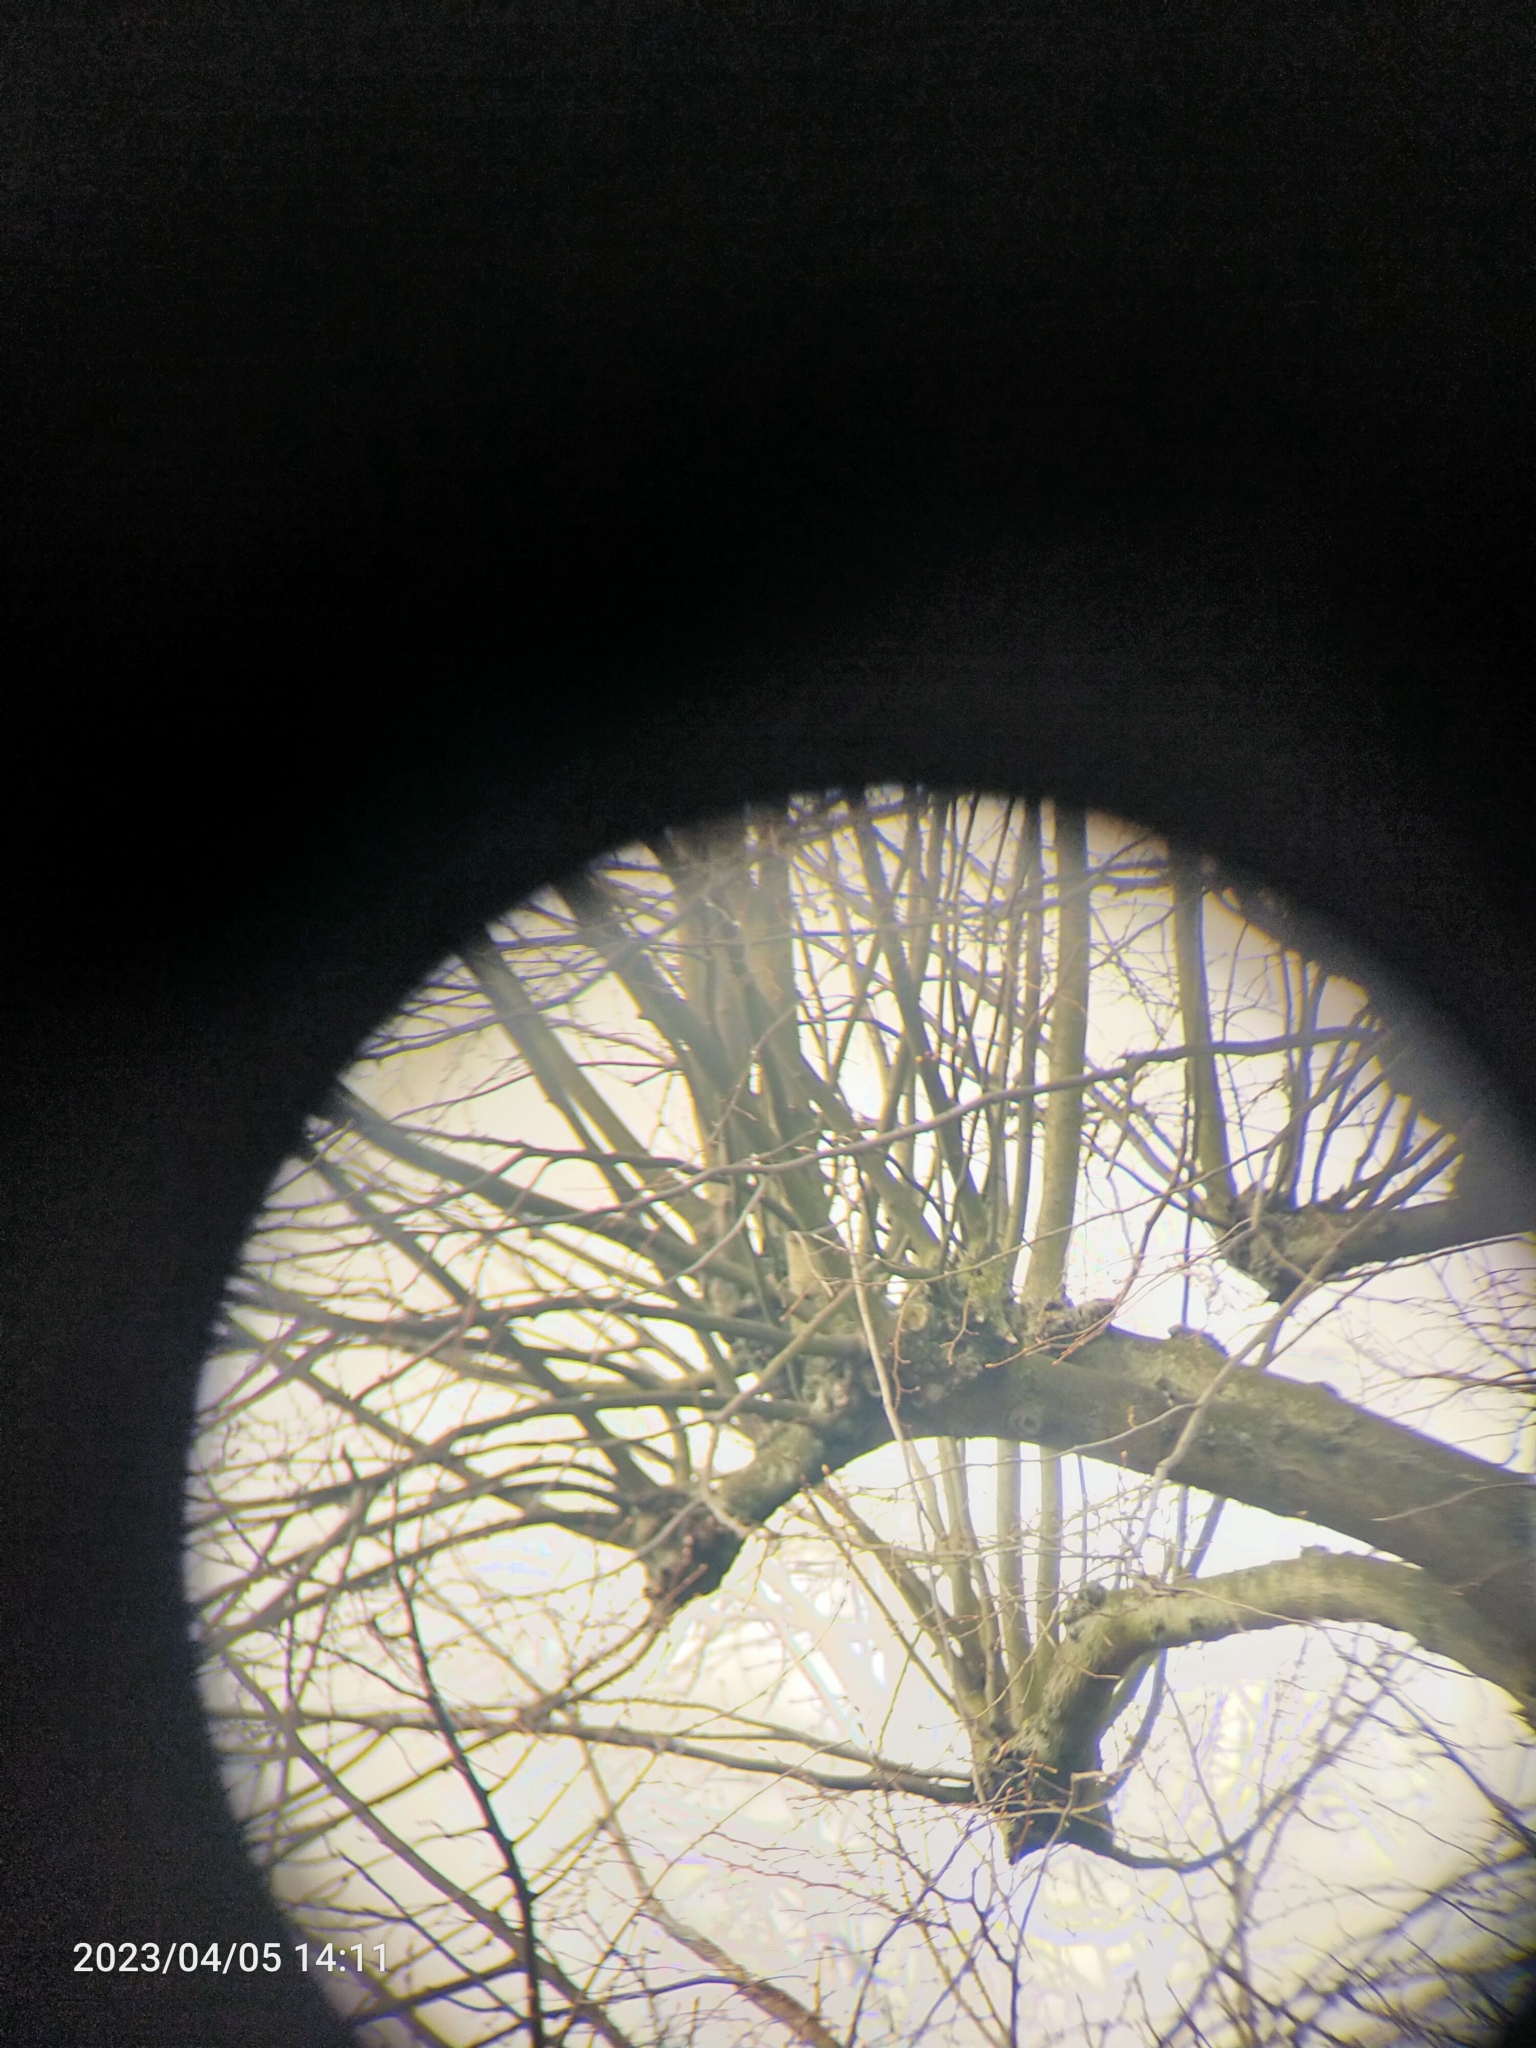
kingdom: Animalia
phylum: Chordata
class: Aves
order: Columbiformes
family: Columbidae
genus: Columba
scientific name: Columba palumbus
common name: Common wood pigeon
